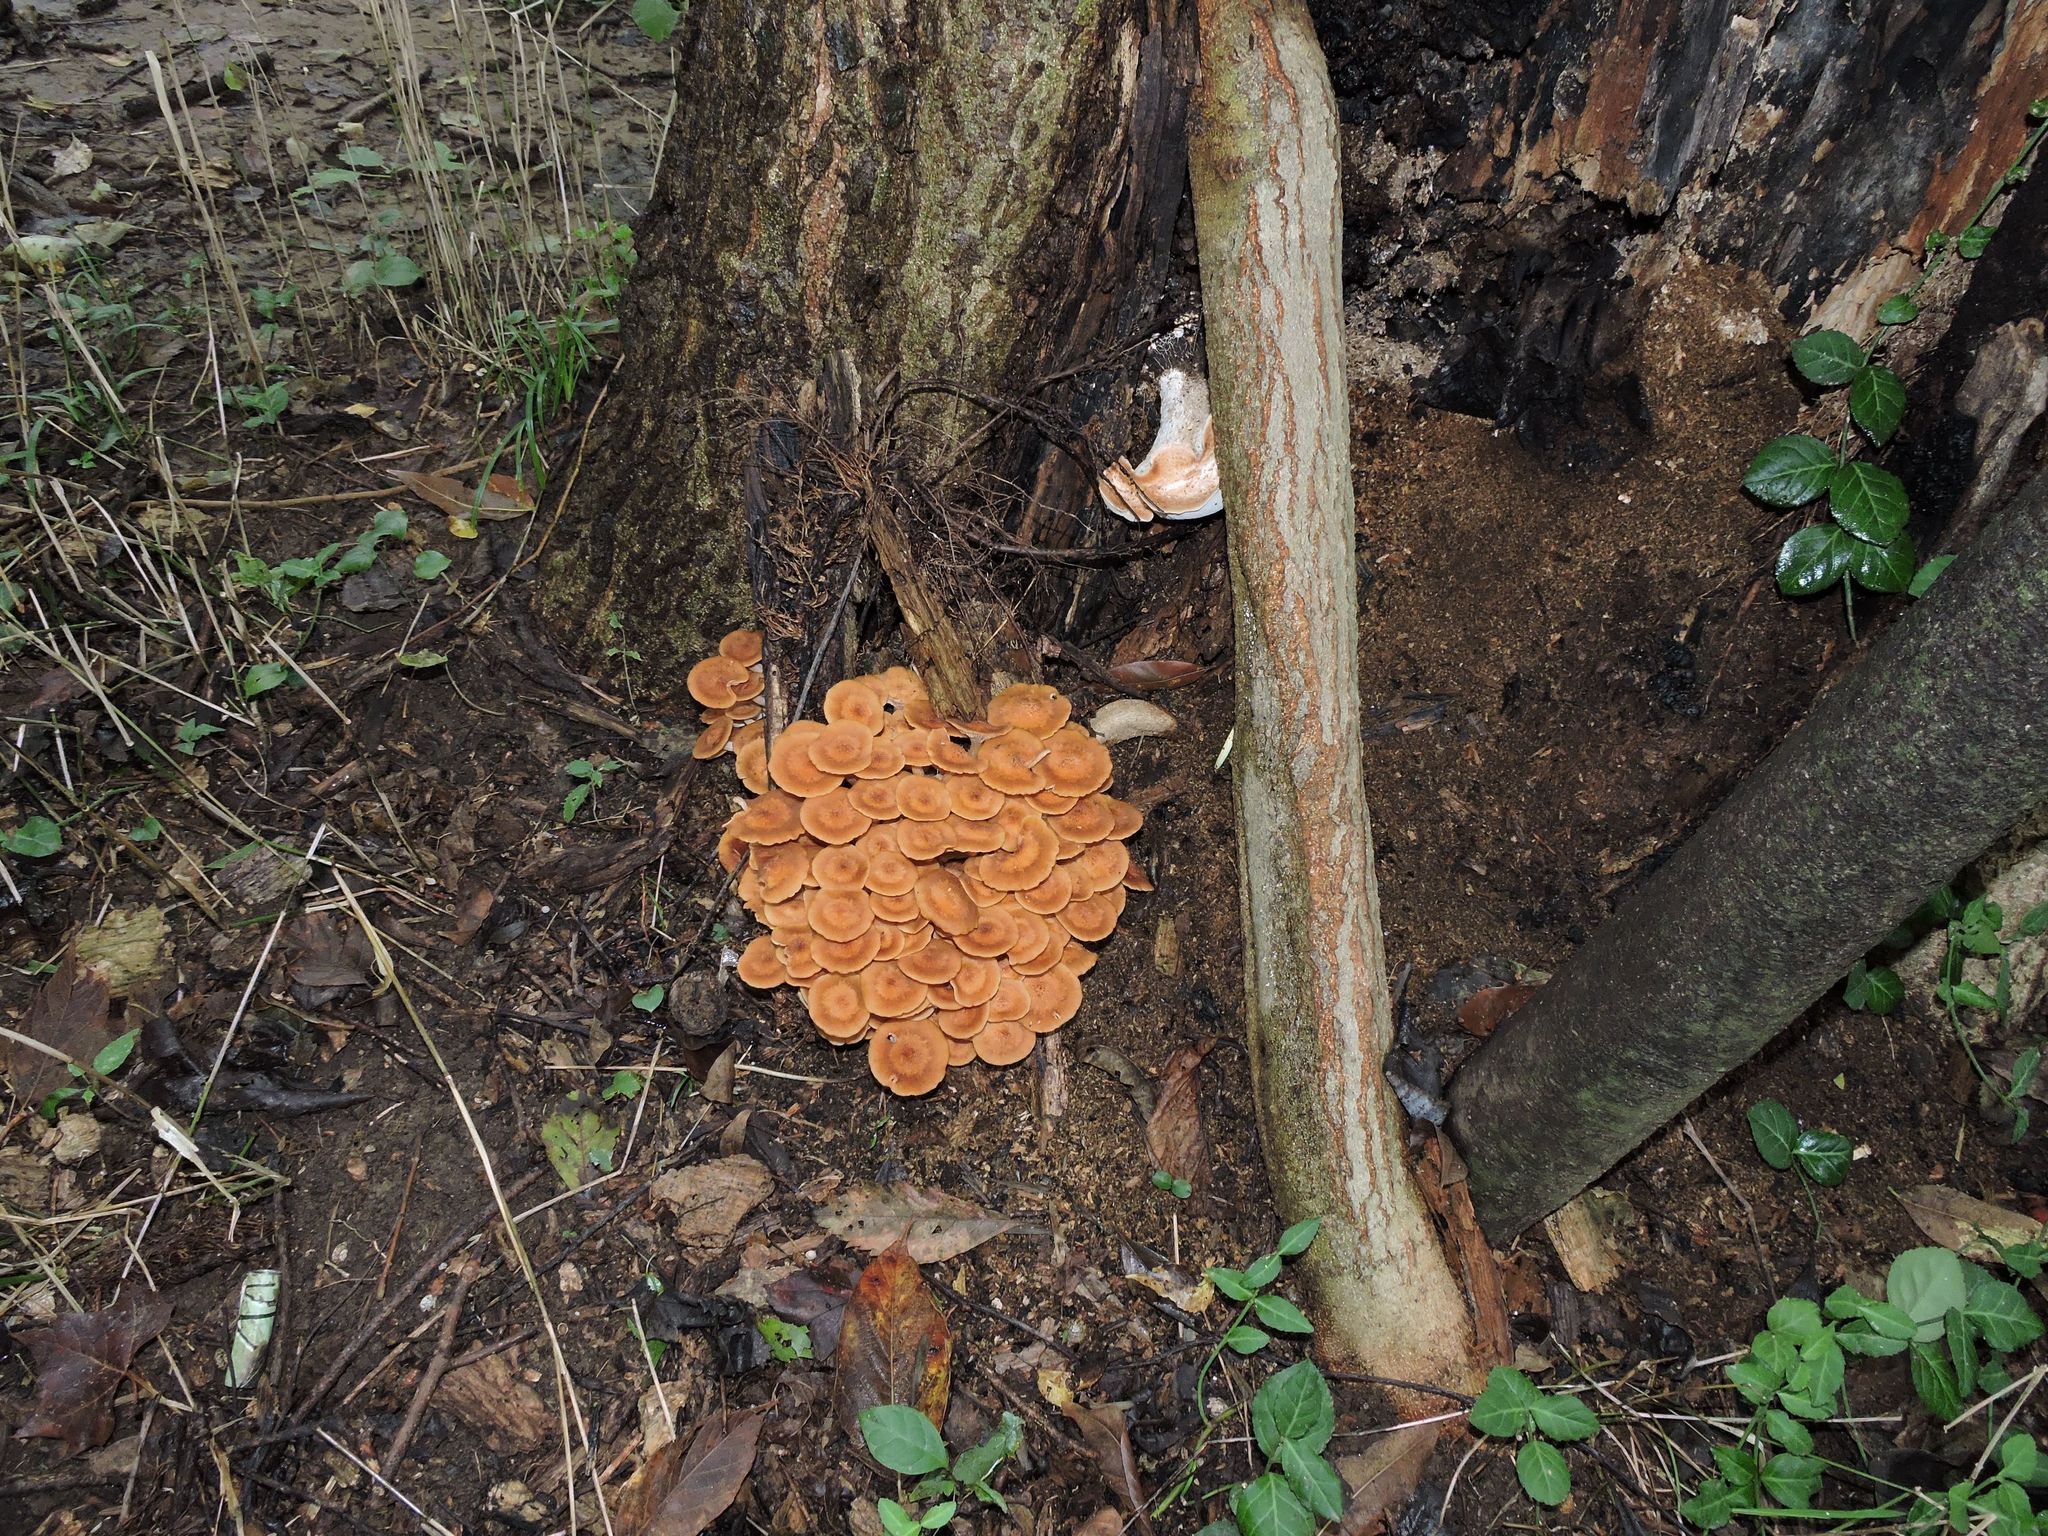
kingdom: Fungi
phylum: Basidiomycota
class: Agaricomycetes
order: Agaricales
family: Physalacriaceae
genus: Desarmillaria
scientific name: Desarmillaria caespitosa
